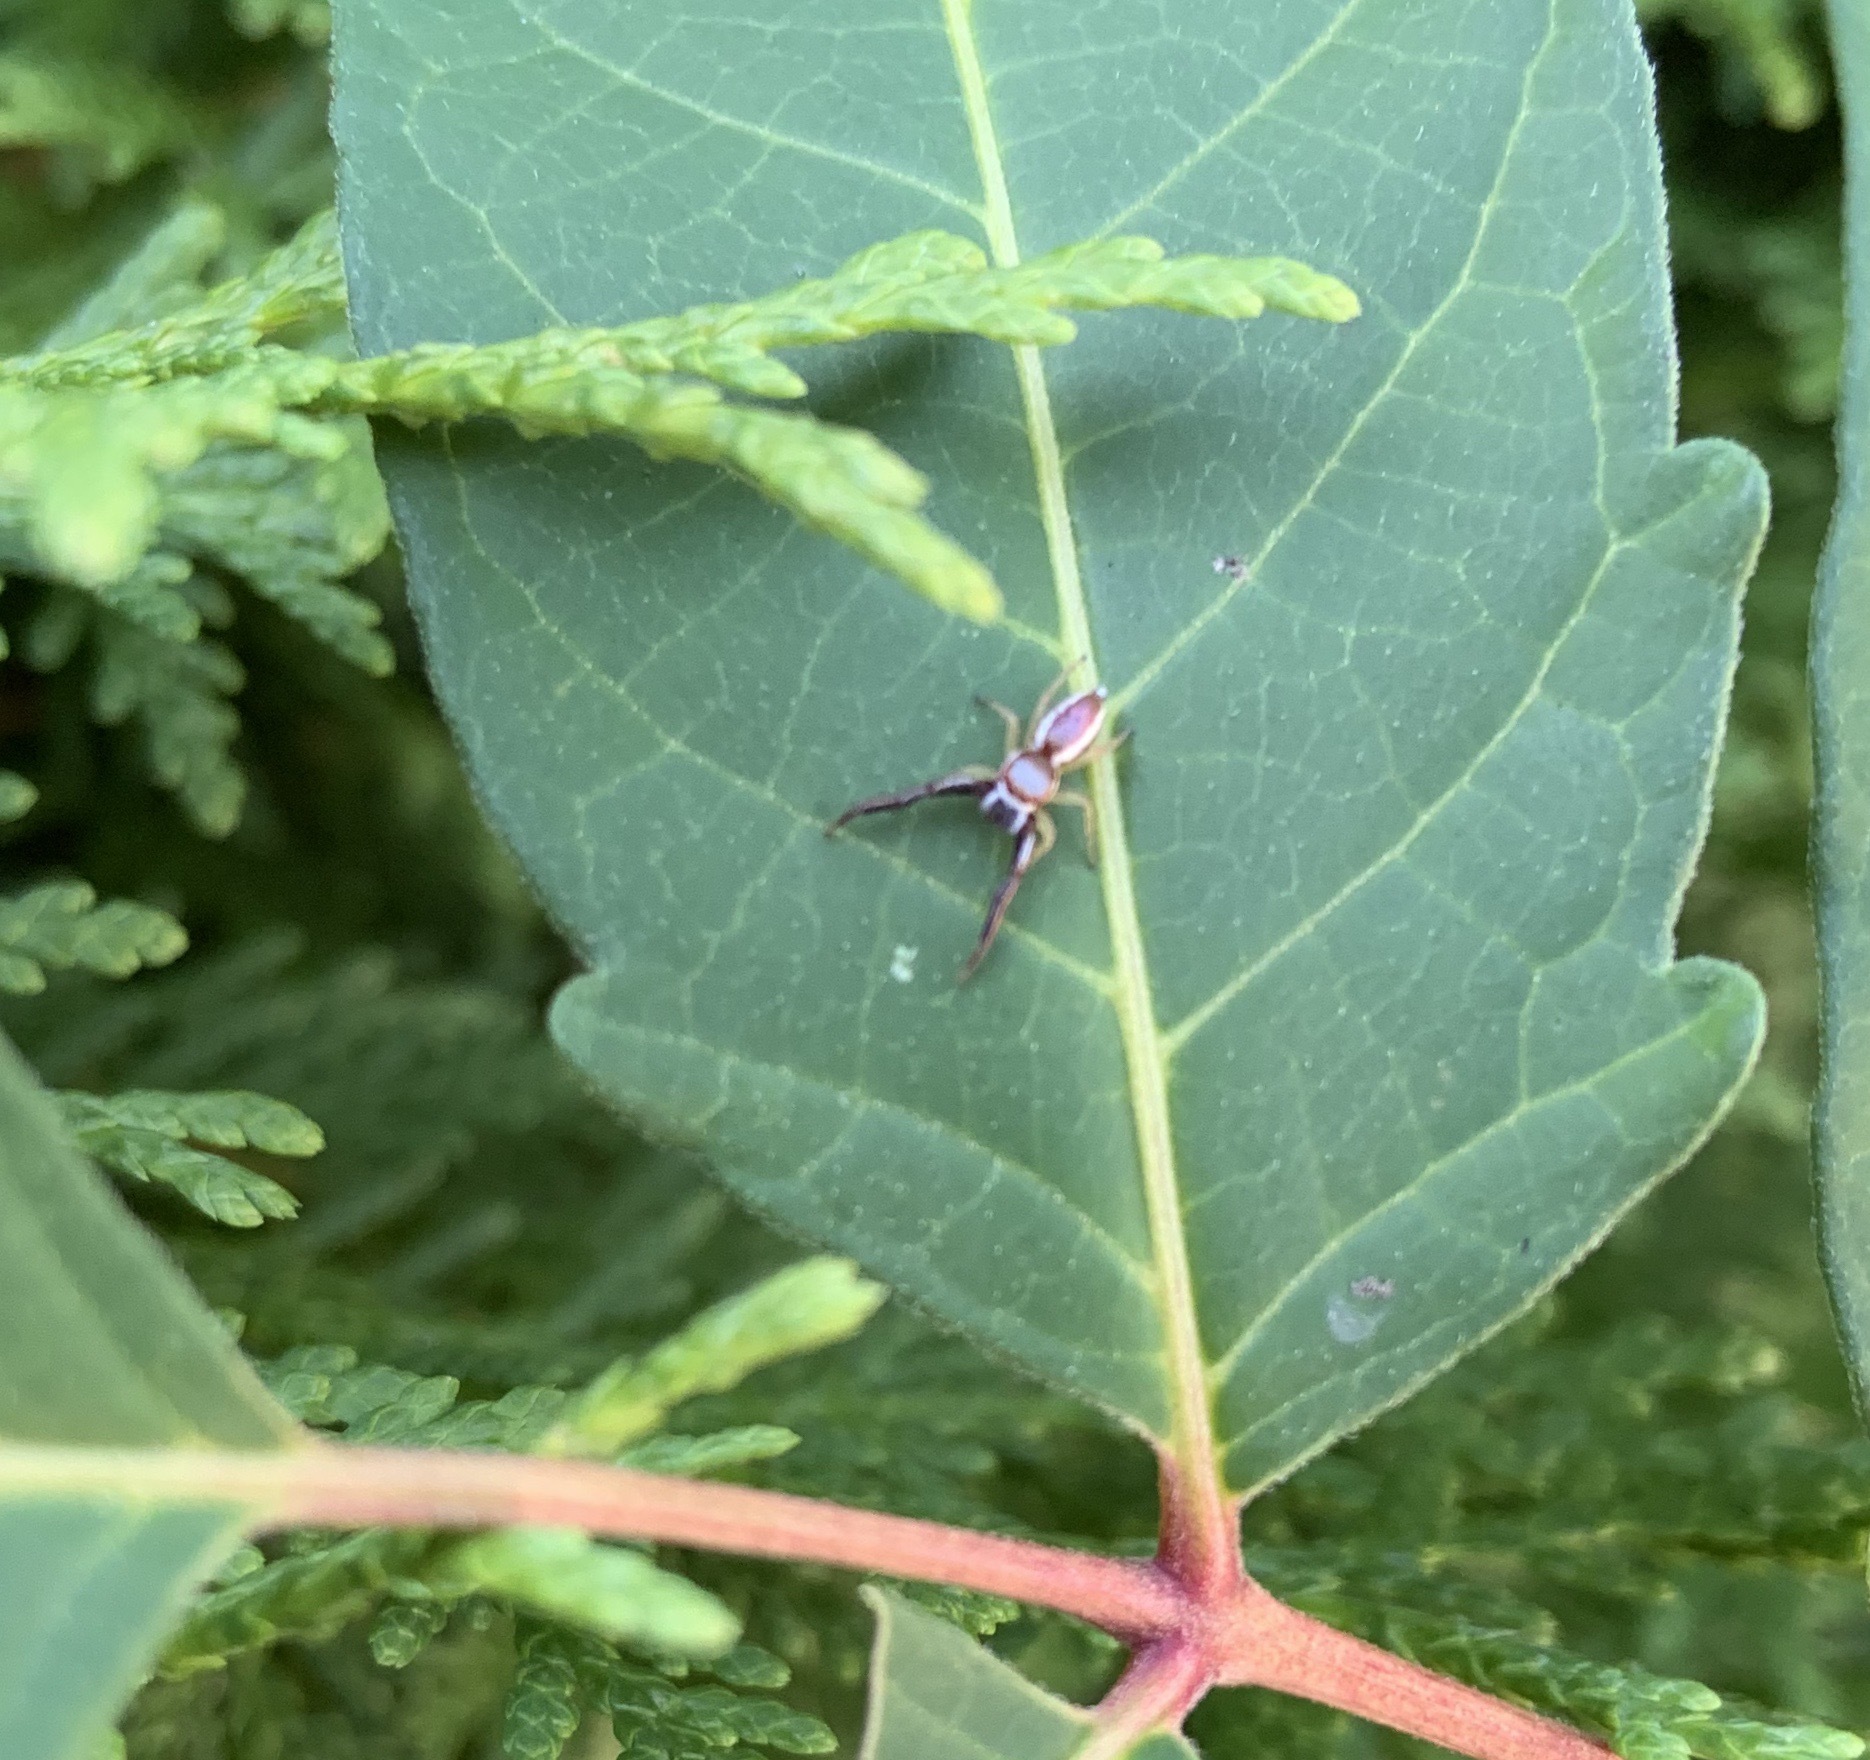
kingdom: Animalia
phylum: Arthropoda
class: Arachnida
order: Araneae
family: Salticidae
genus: Hentzia
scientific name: Hentzia palmarum
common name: Common hentz jumping spider
